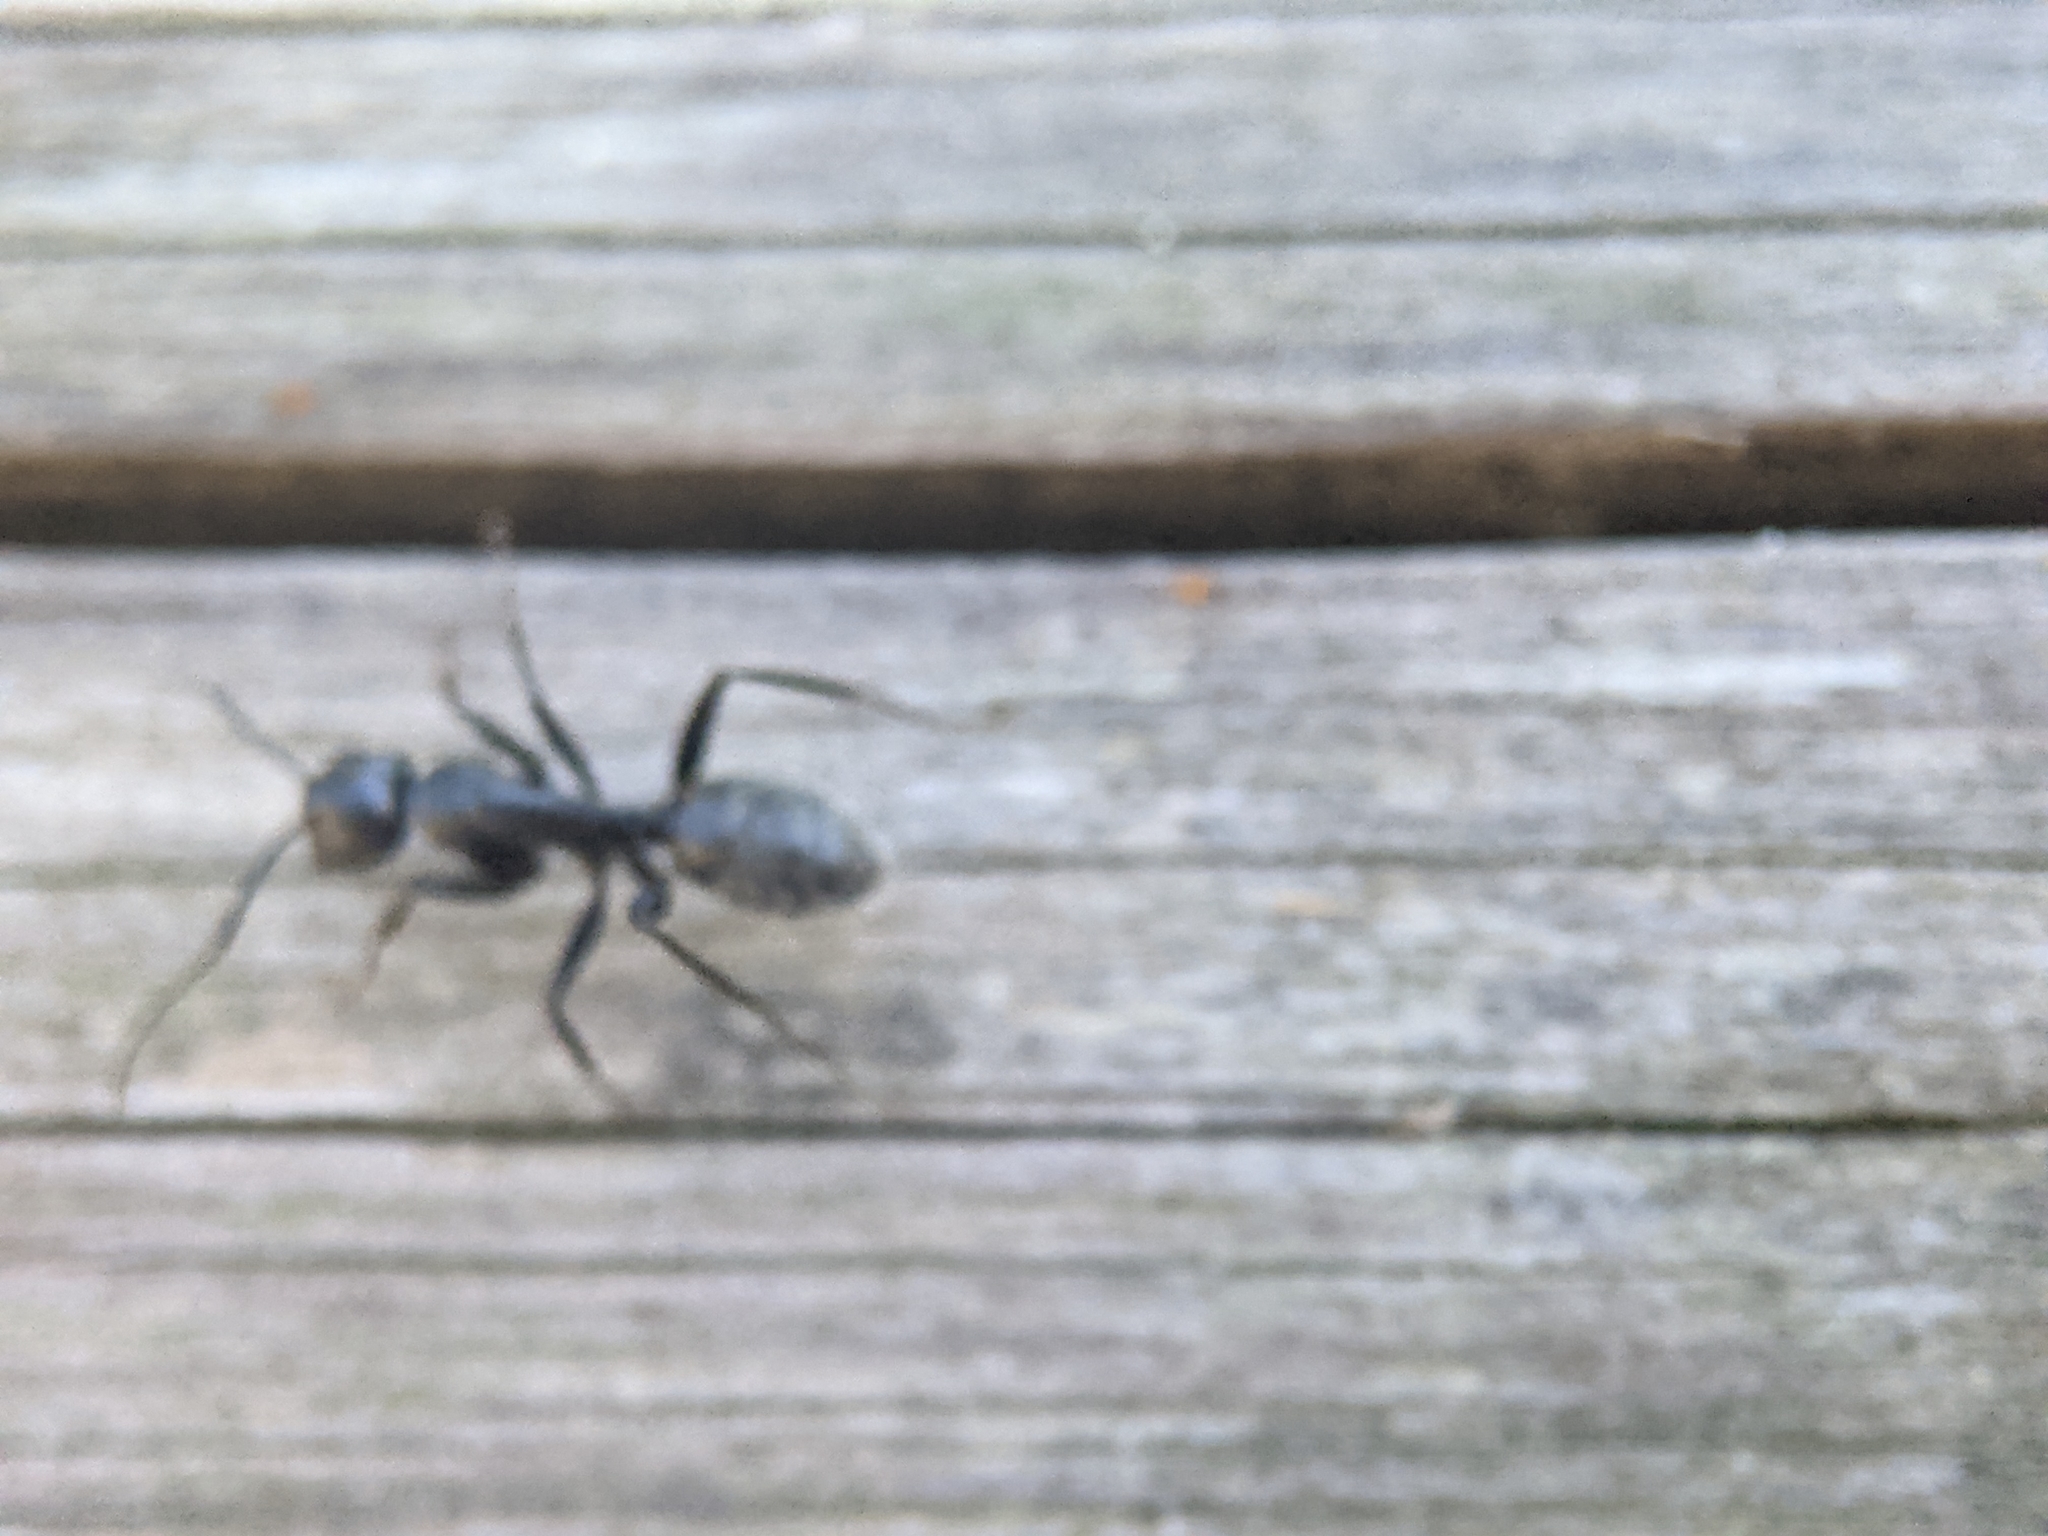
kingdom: Animalia
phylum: Arthropoda
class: Insecta
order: Hymenoptera
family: Formicidae
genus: Camponotus
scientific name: Camponotus vagus
